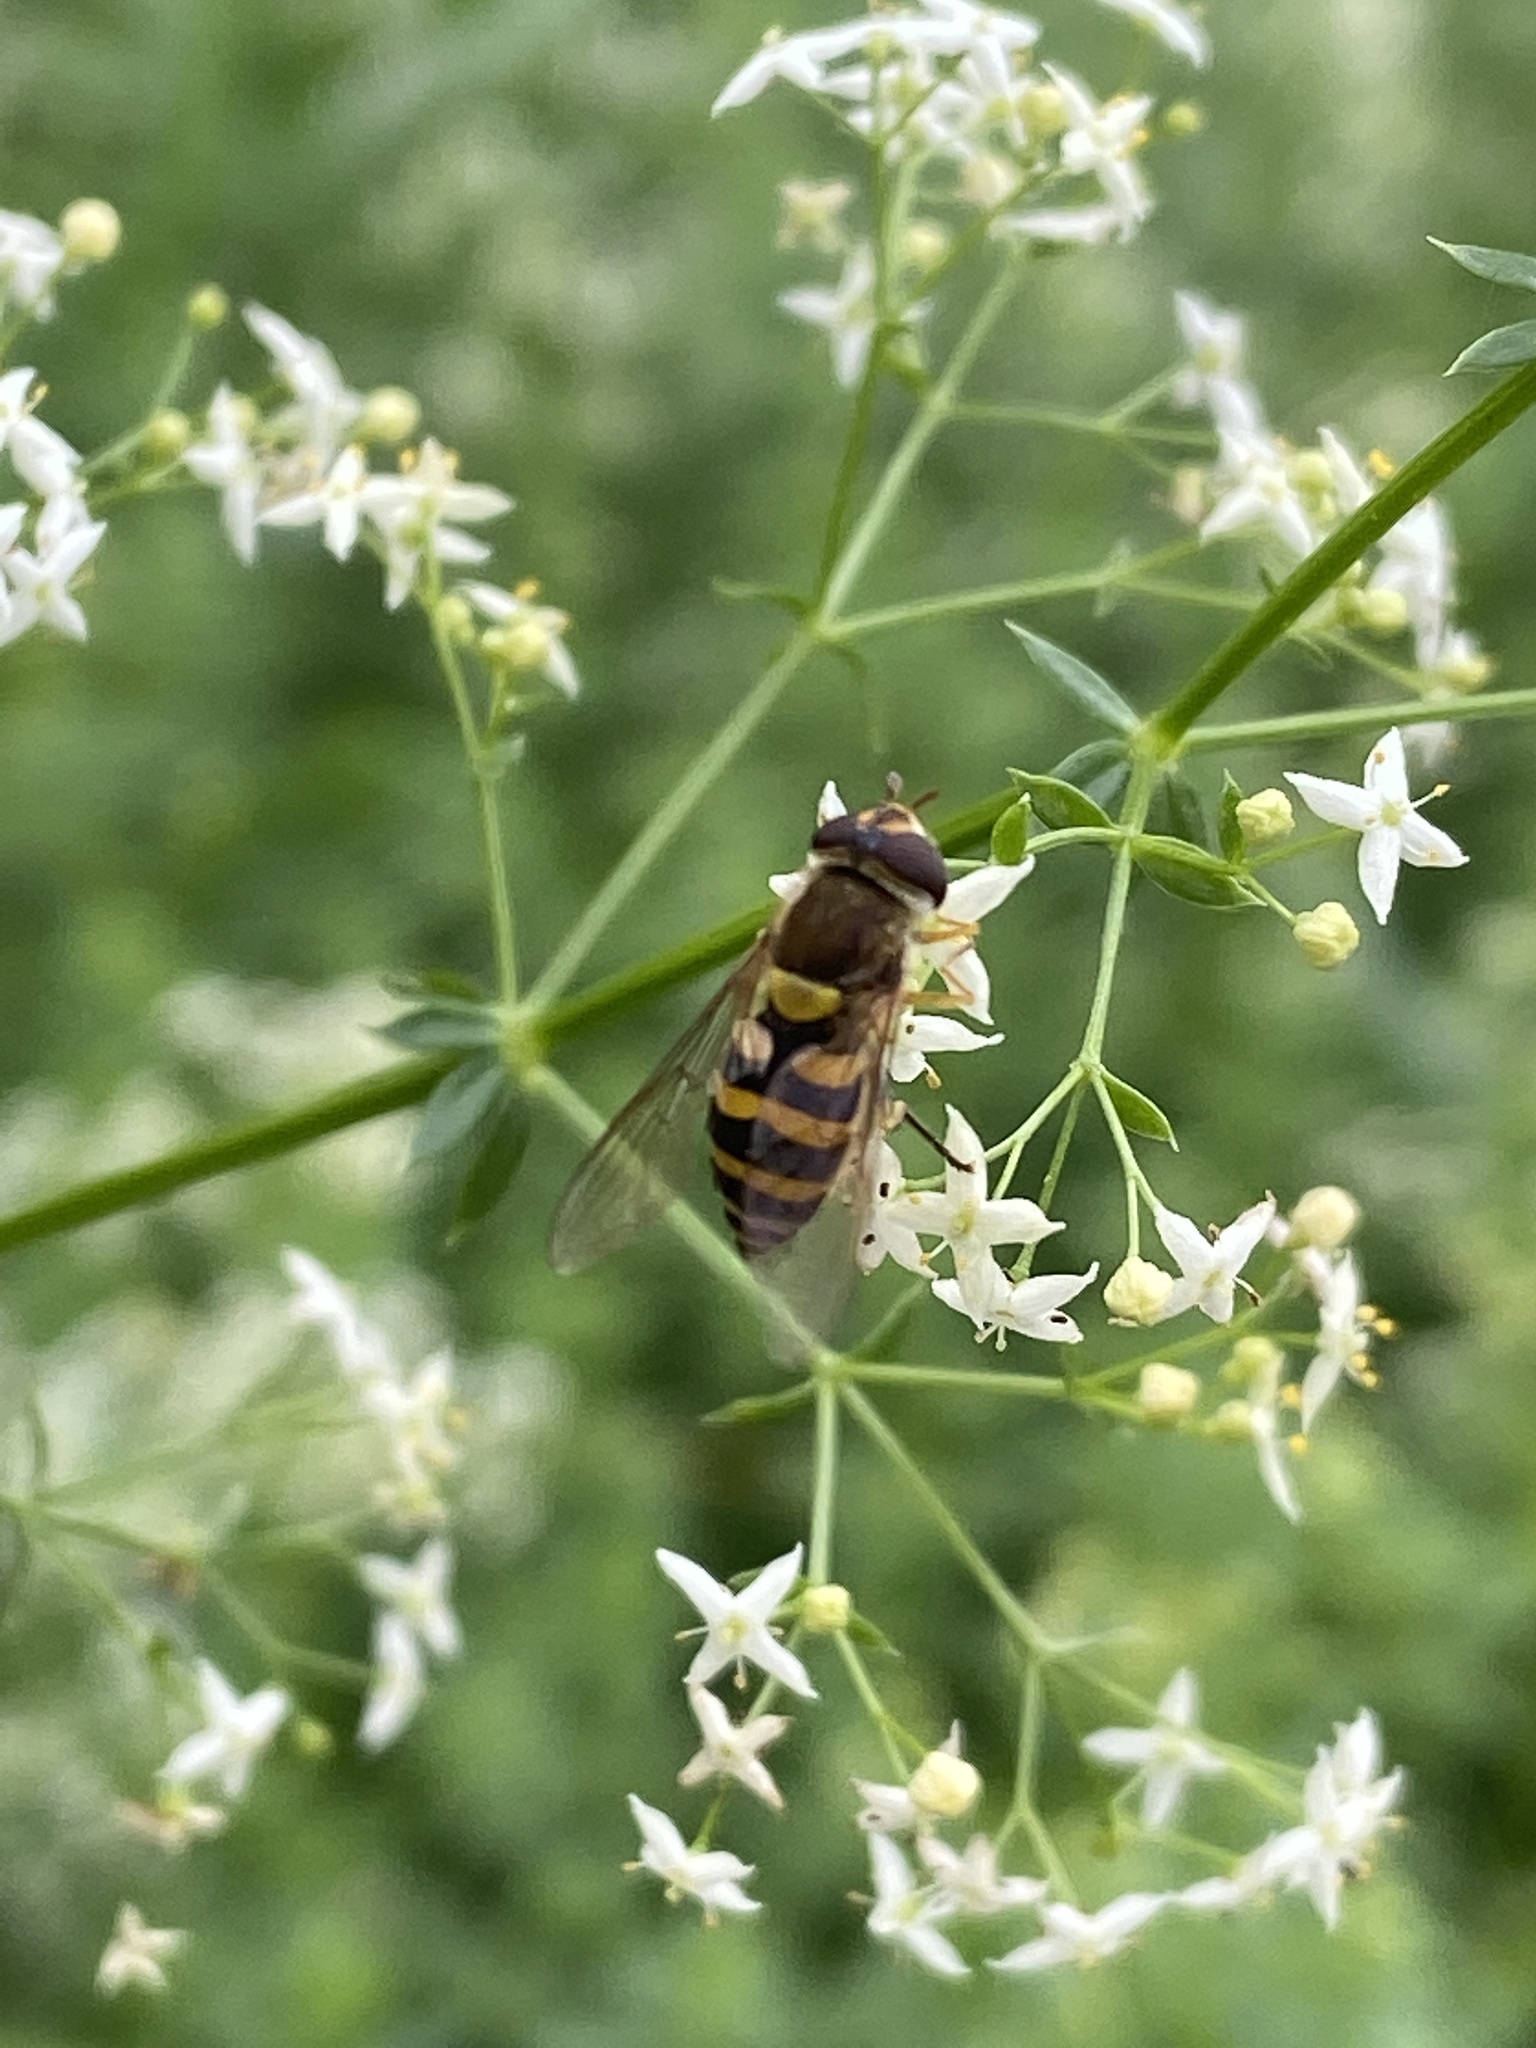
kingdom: Animalia
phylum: Arthropoda
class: Insecta
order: Diptera
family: Syrphidae
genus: Syrphus
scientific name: Syrphus
